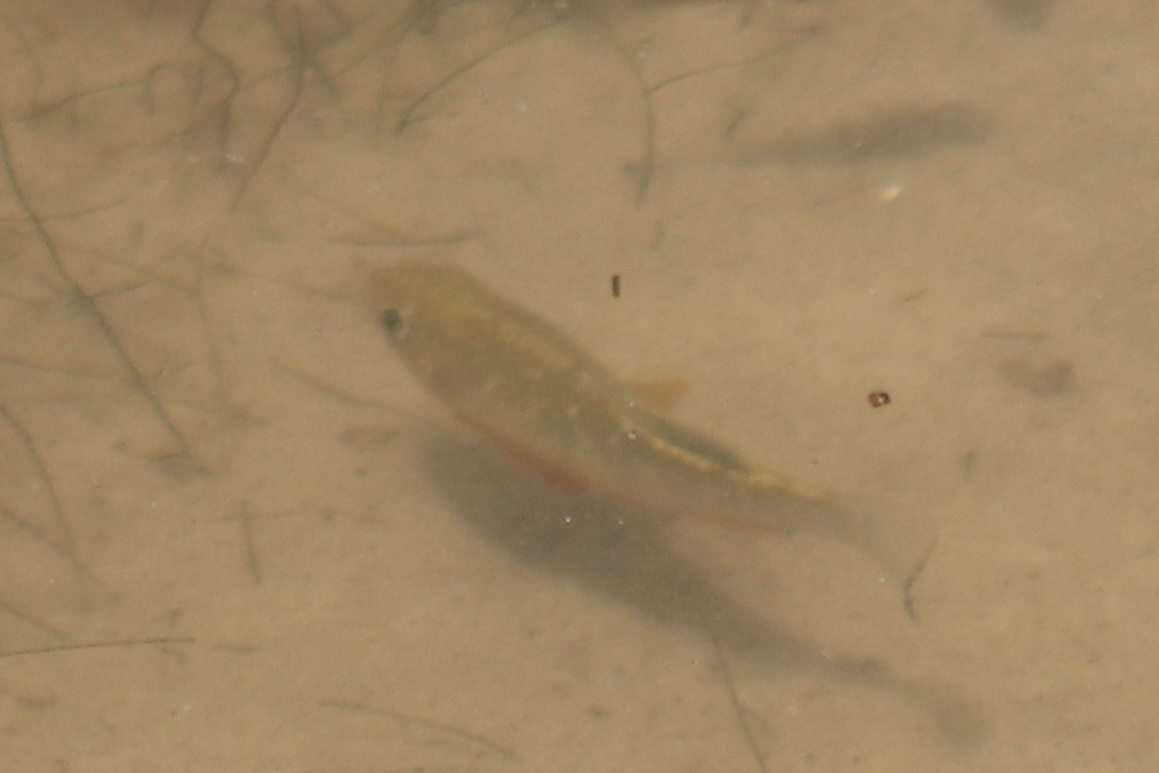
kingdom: Animalia
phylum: Chordata
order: Cyprinodontiformes
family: Cyprinodontidae
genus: Cyprinodon
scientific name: Cyprinodon variegatus
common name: Sheepshead minnow
